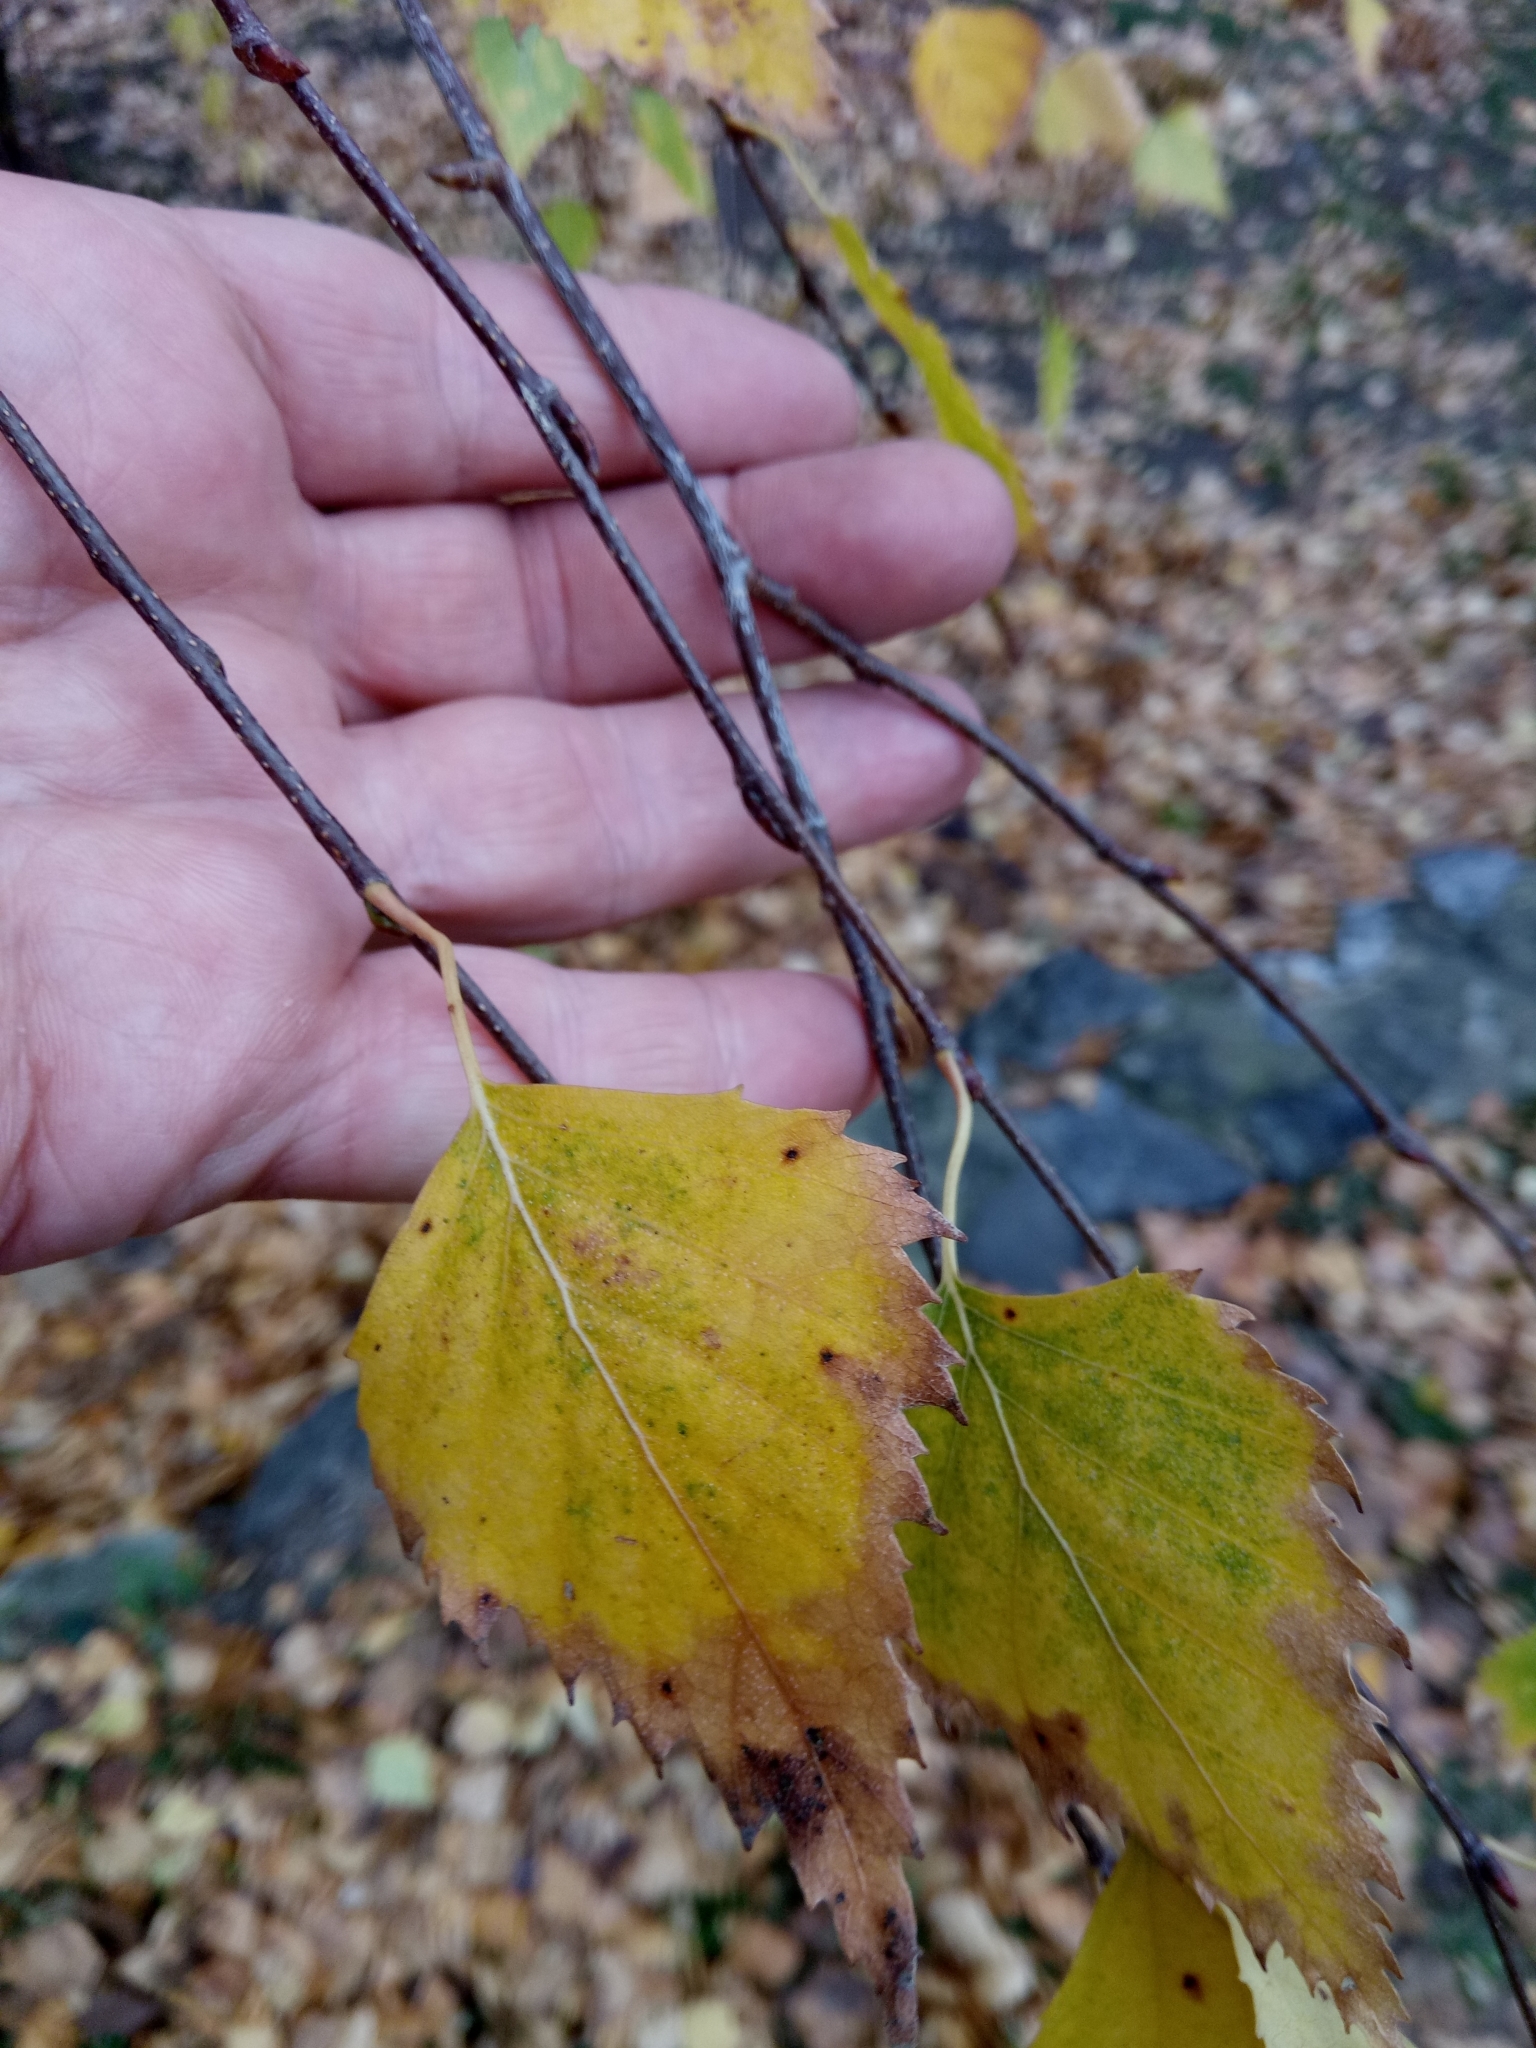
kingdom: Plantae
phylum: Tracheophyta
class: Magnoliopsida
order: Fagales
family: Betulaceae
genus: Betula
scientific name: Betula pendula
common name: Silver birch
